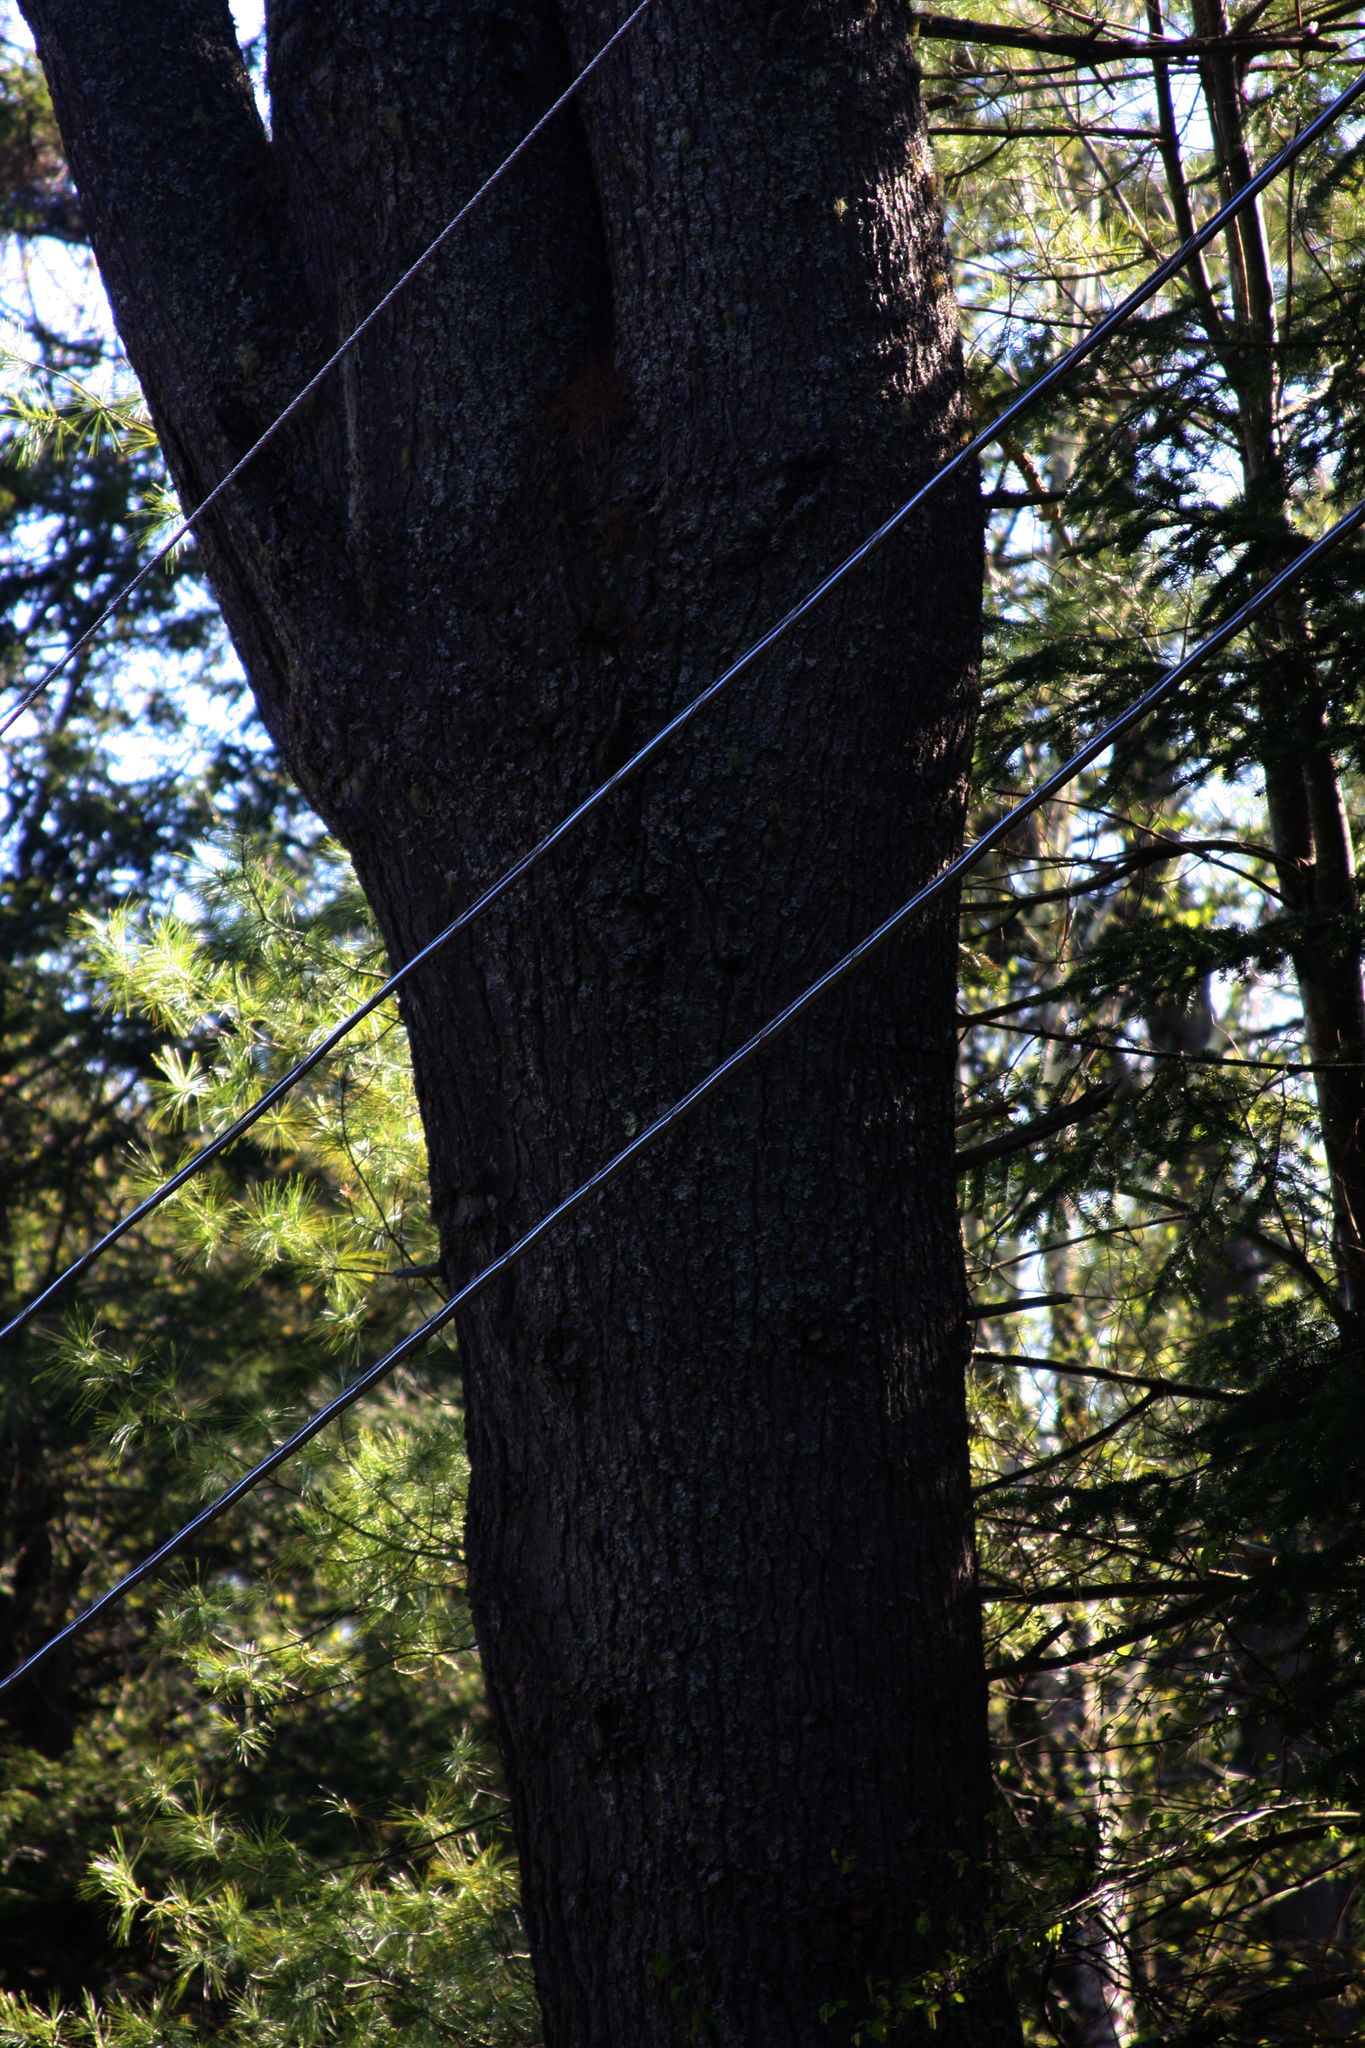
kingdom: Plantae
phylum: Tracheophyta
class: Pinopsida
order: Pinales
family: Pinaceae
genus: Pinus
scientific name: Pinus strobus
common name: Weymouth pine
